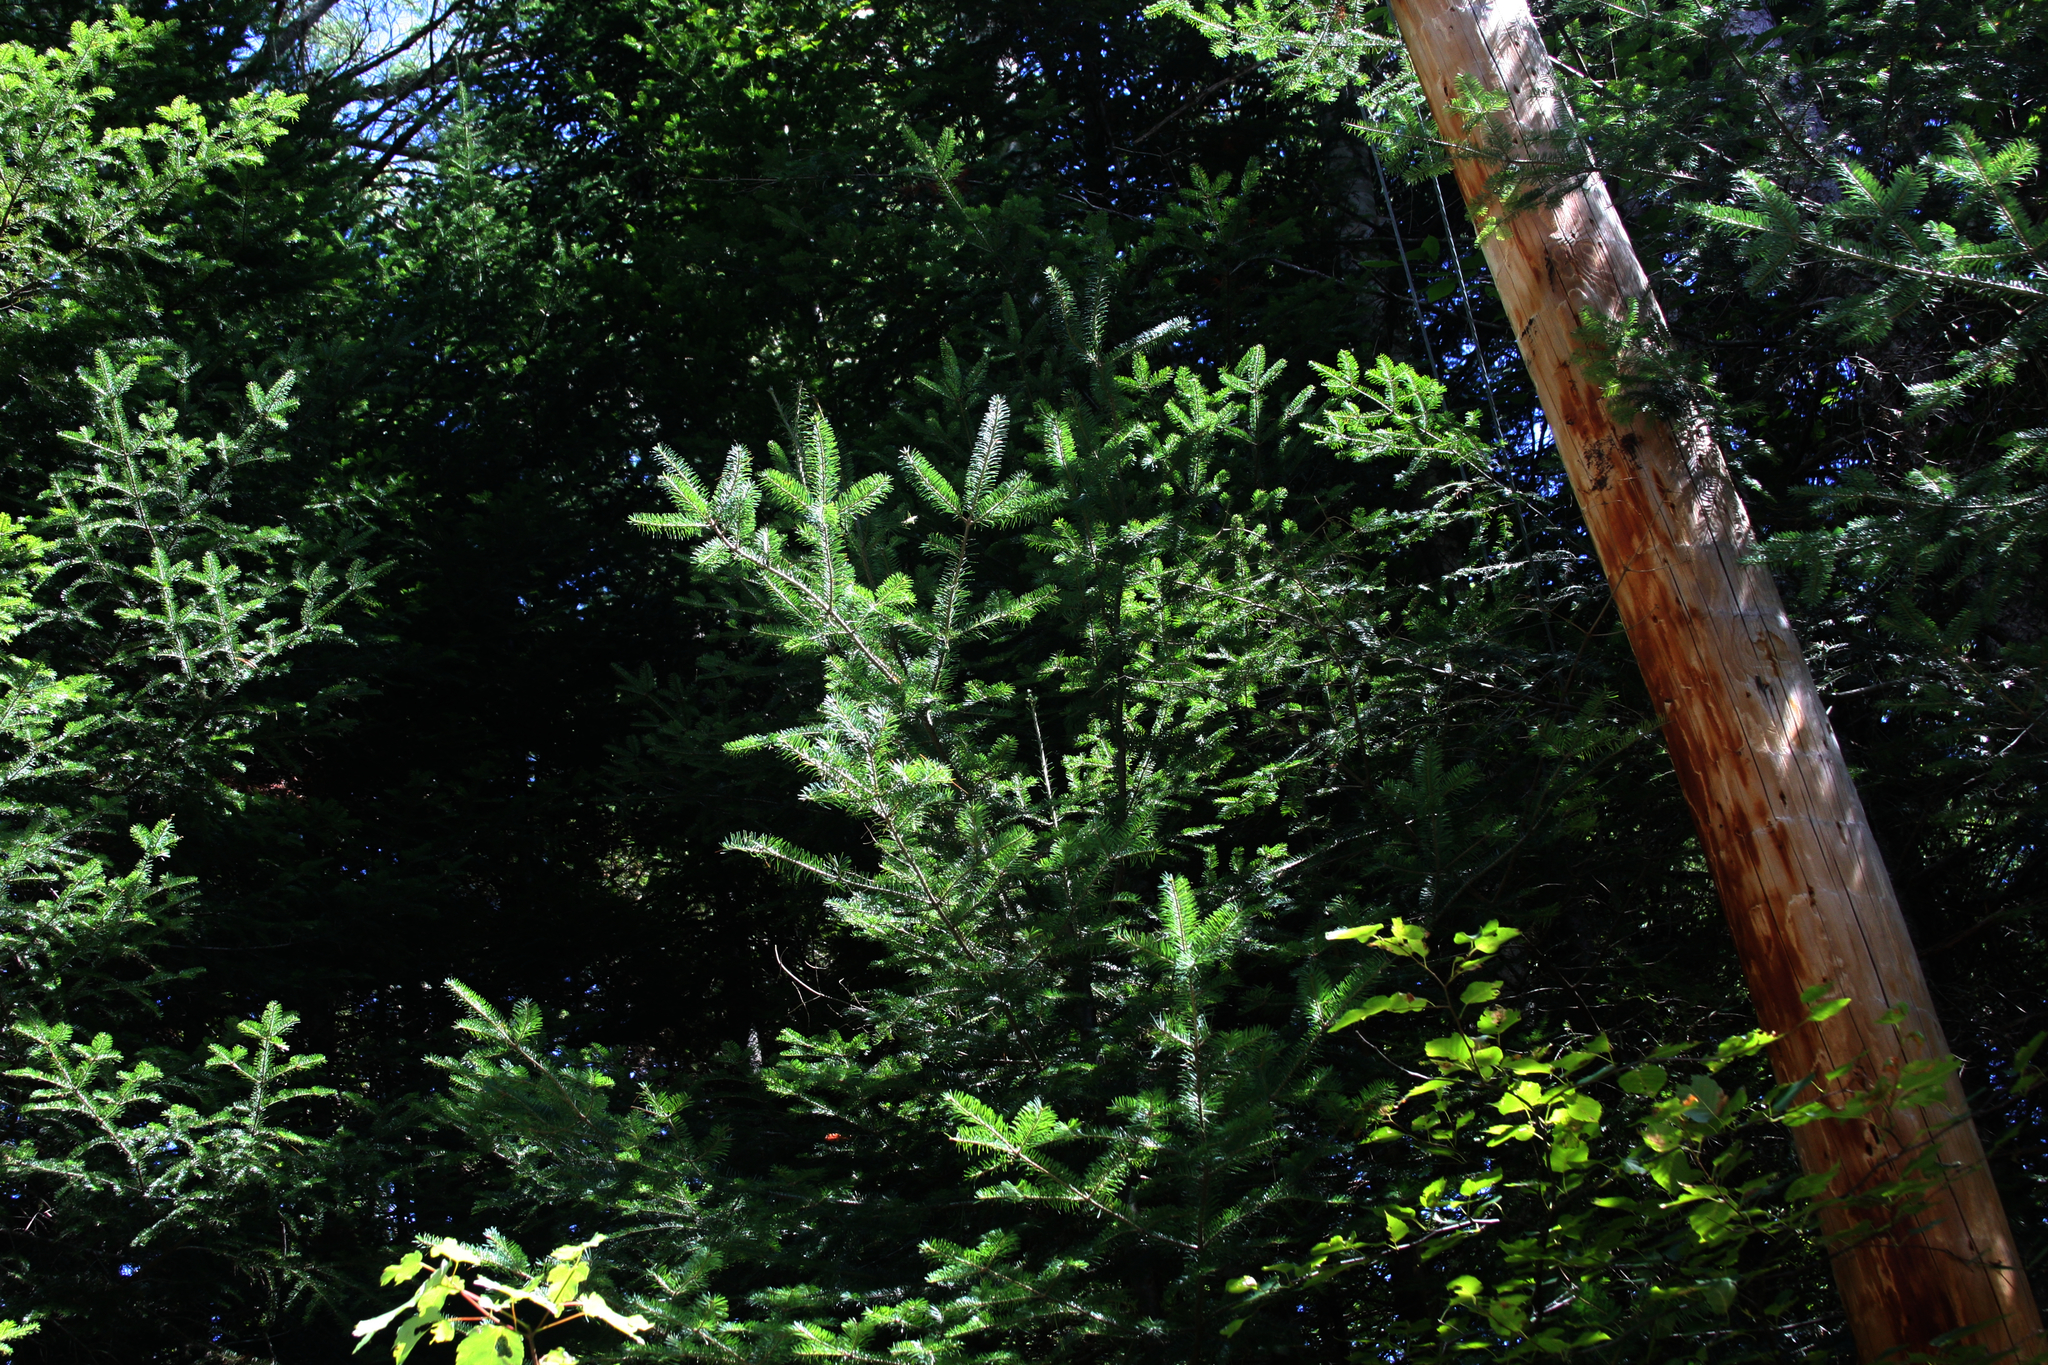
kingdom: Plantae
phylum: Tracheophyta
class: Pinopsida
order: Pinales
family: Pinaceae
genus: Abies
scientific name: Abies balsamea
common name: Balsam fir
